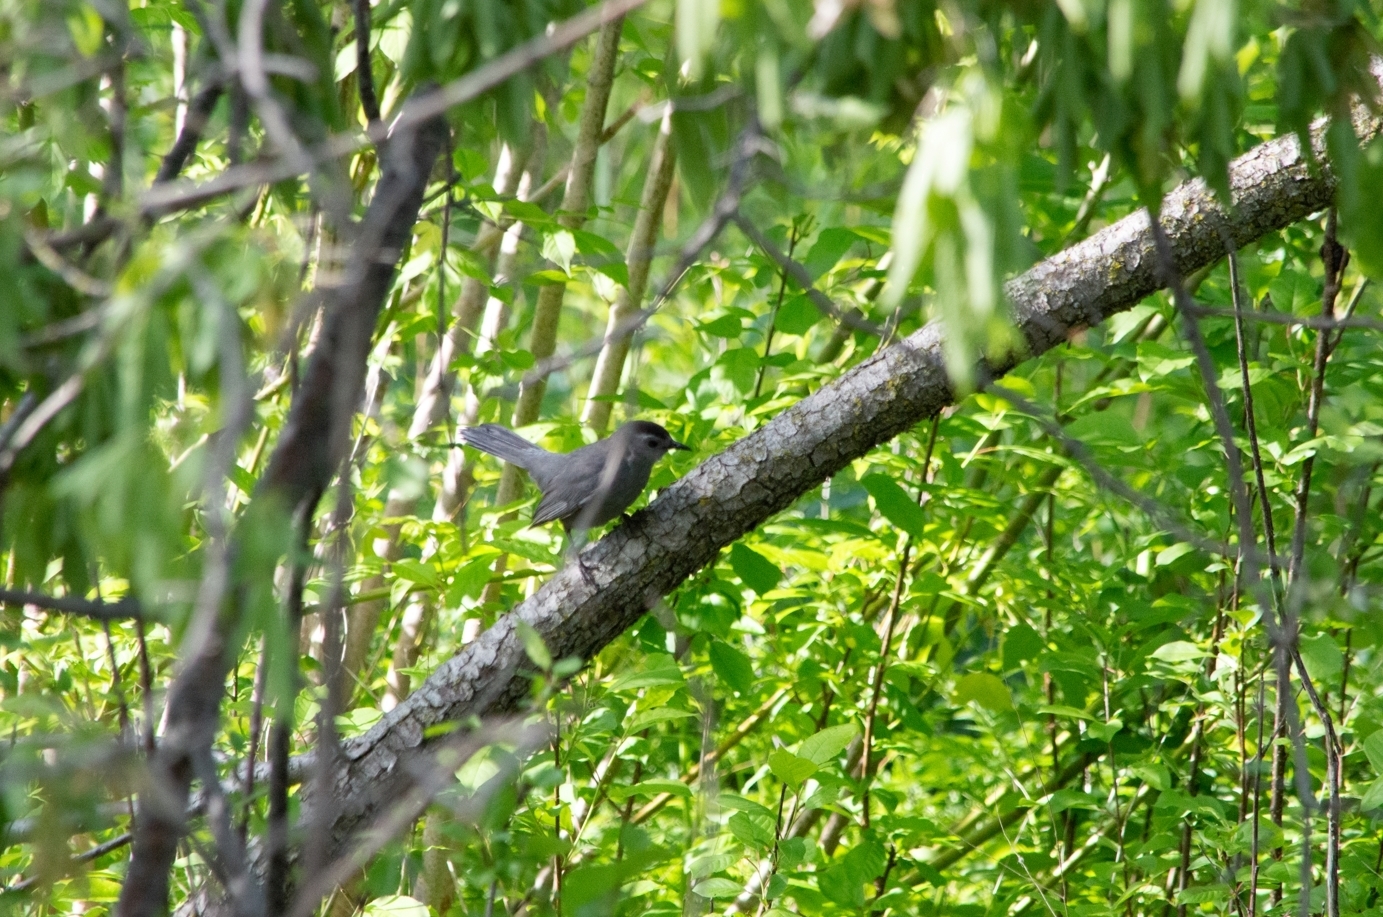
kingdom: Animalia
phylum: Chordata
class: Aves
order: Passeriformes
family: Mimidae
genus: Dumetella
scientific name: Dumetella carolinensis
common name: Gray catbird
